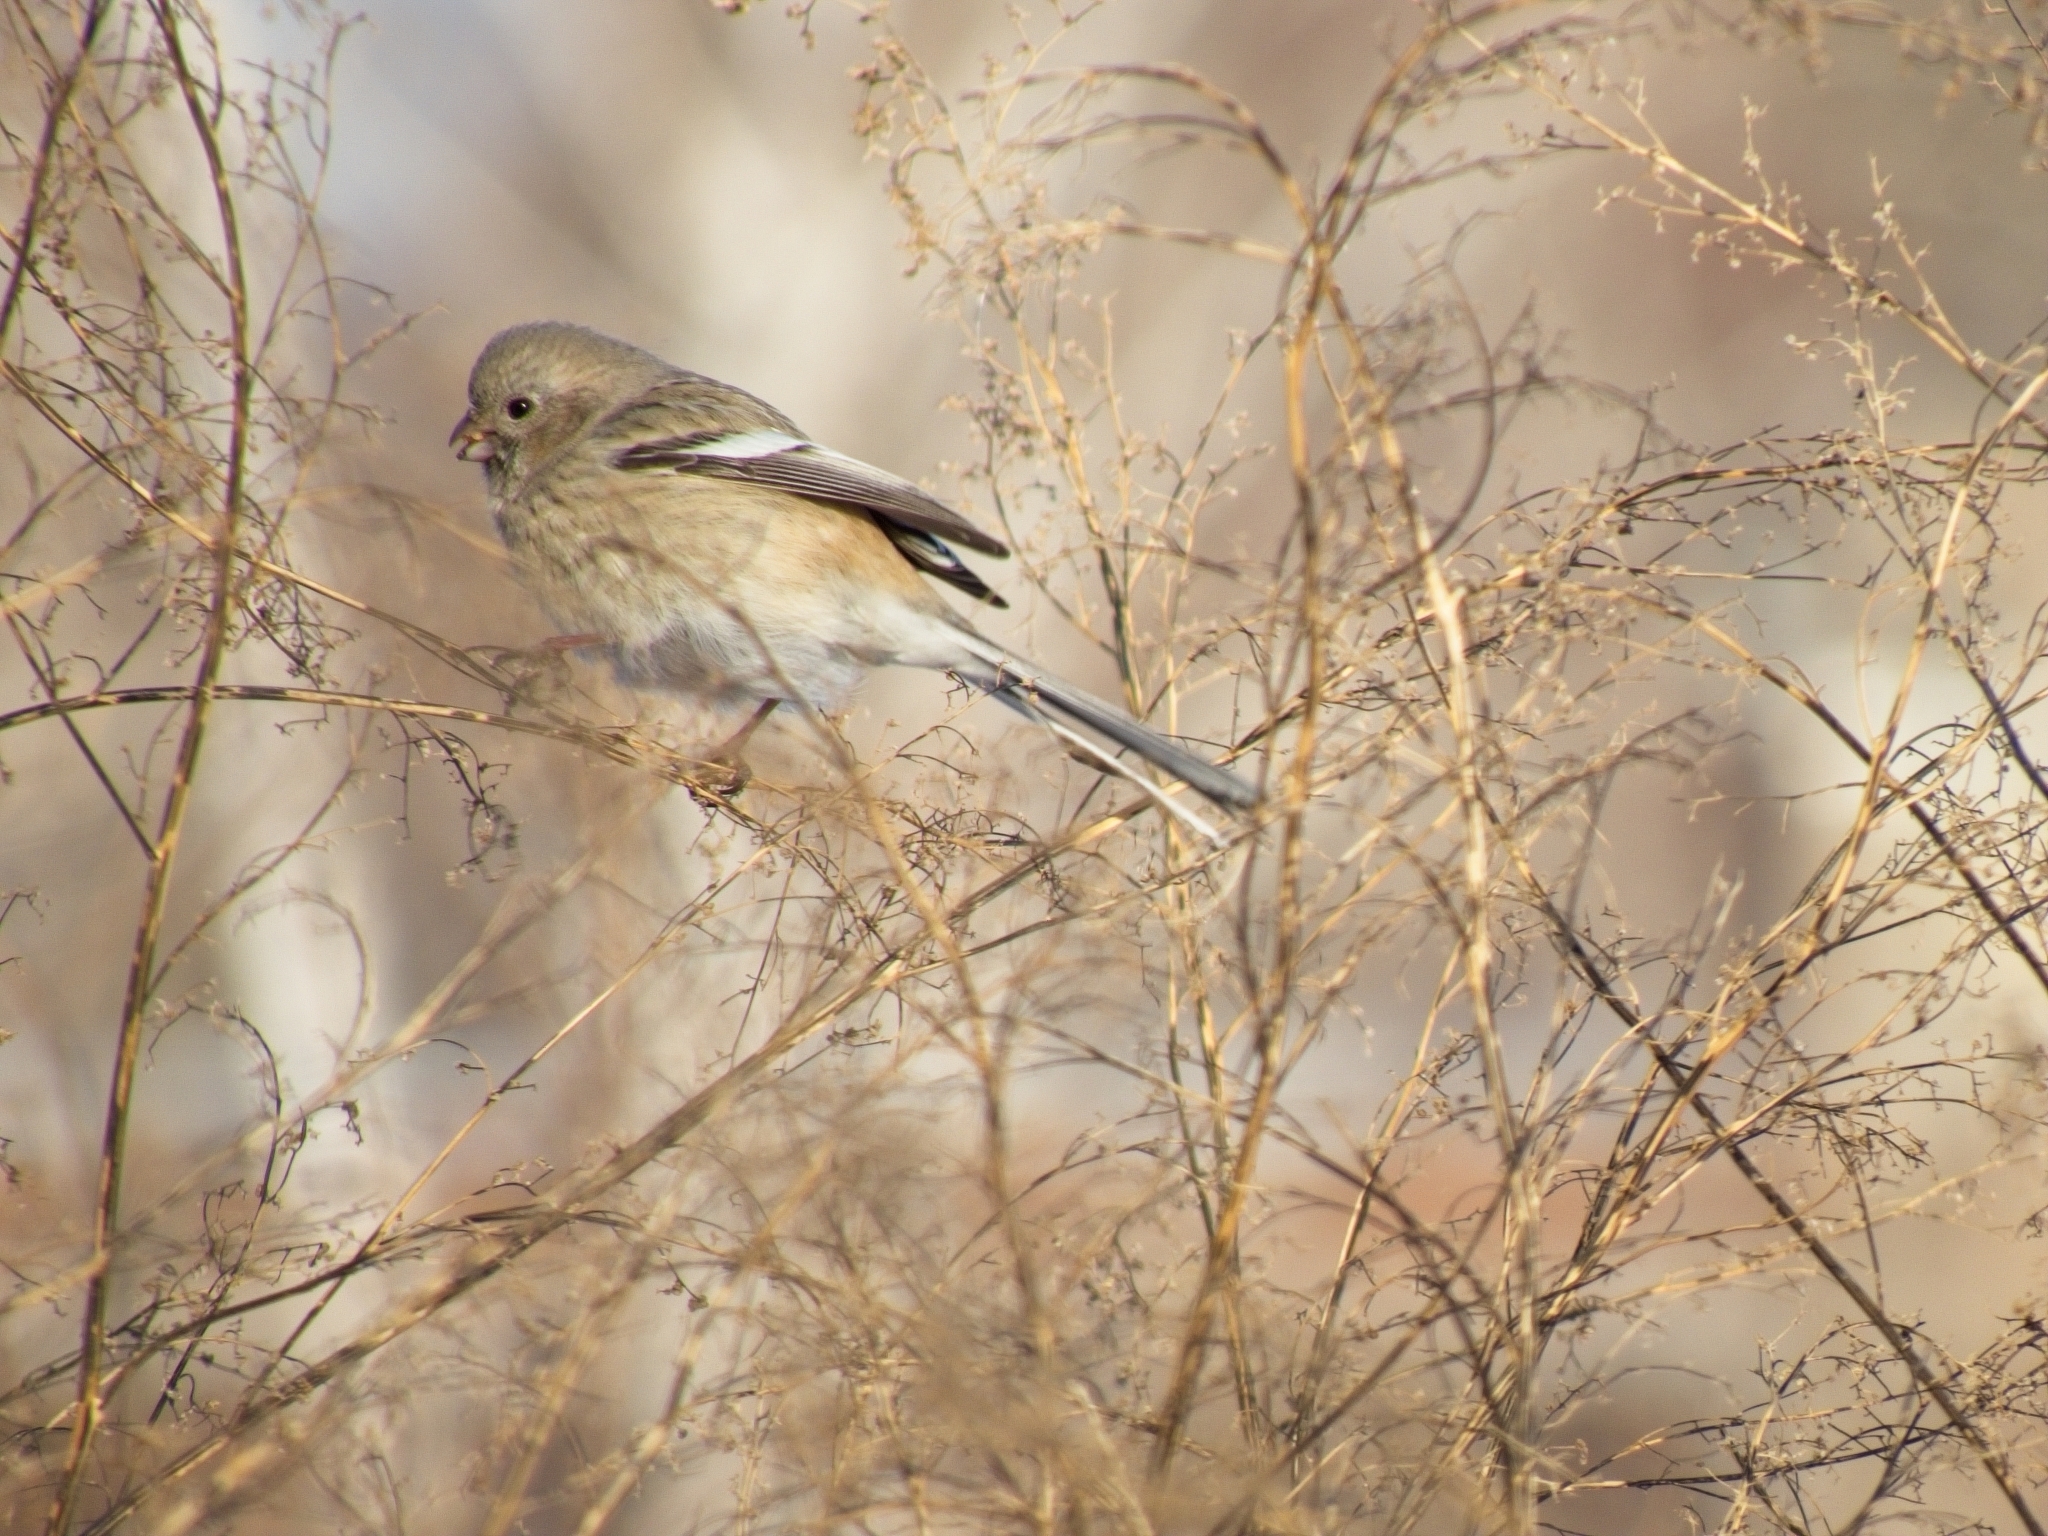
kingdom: Animalia
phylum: Chordata
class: Aves
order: Passeriformes
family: Fringillidae
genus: Carpodacus
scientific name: Carpodacus sibiricus
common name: Long-tailed rosefinch
